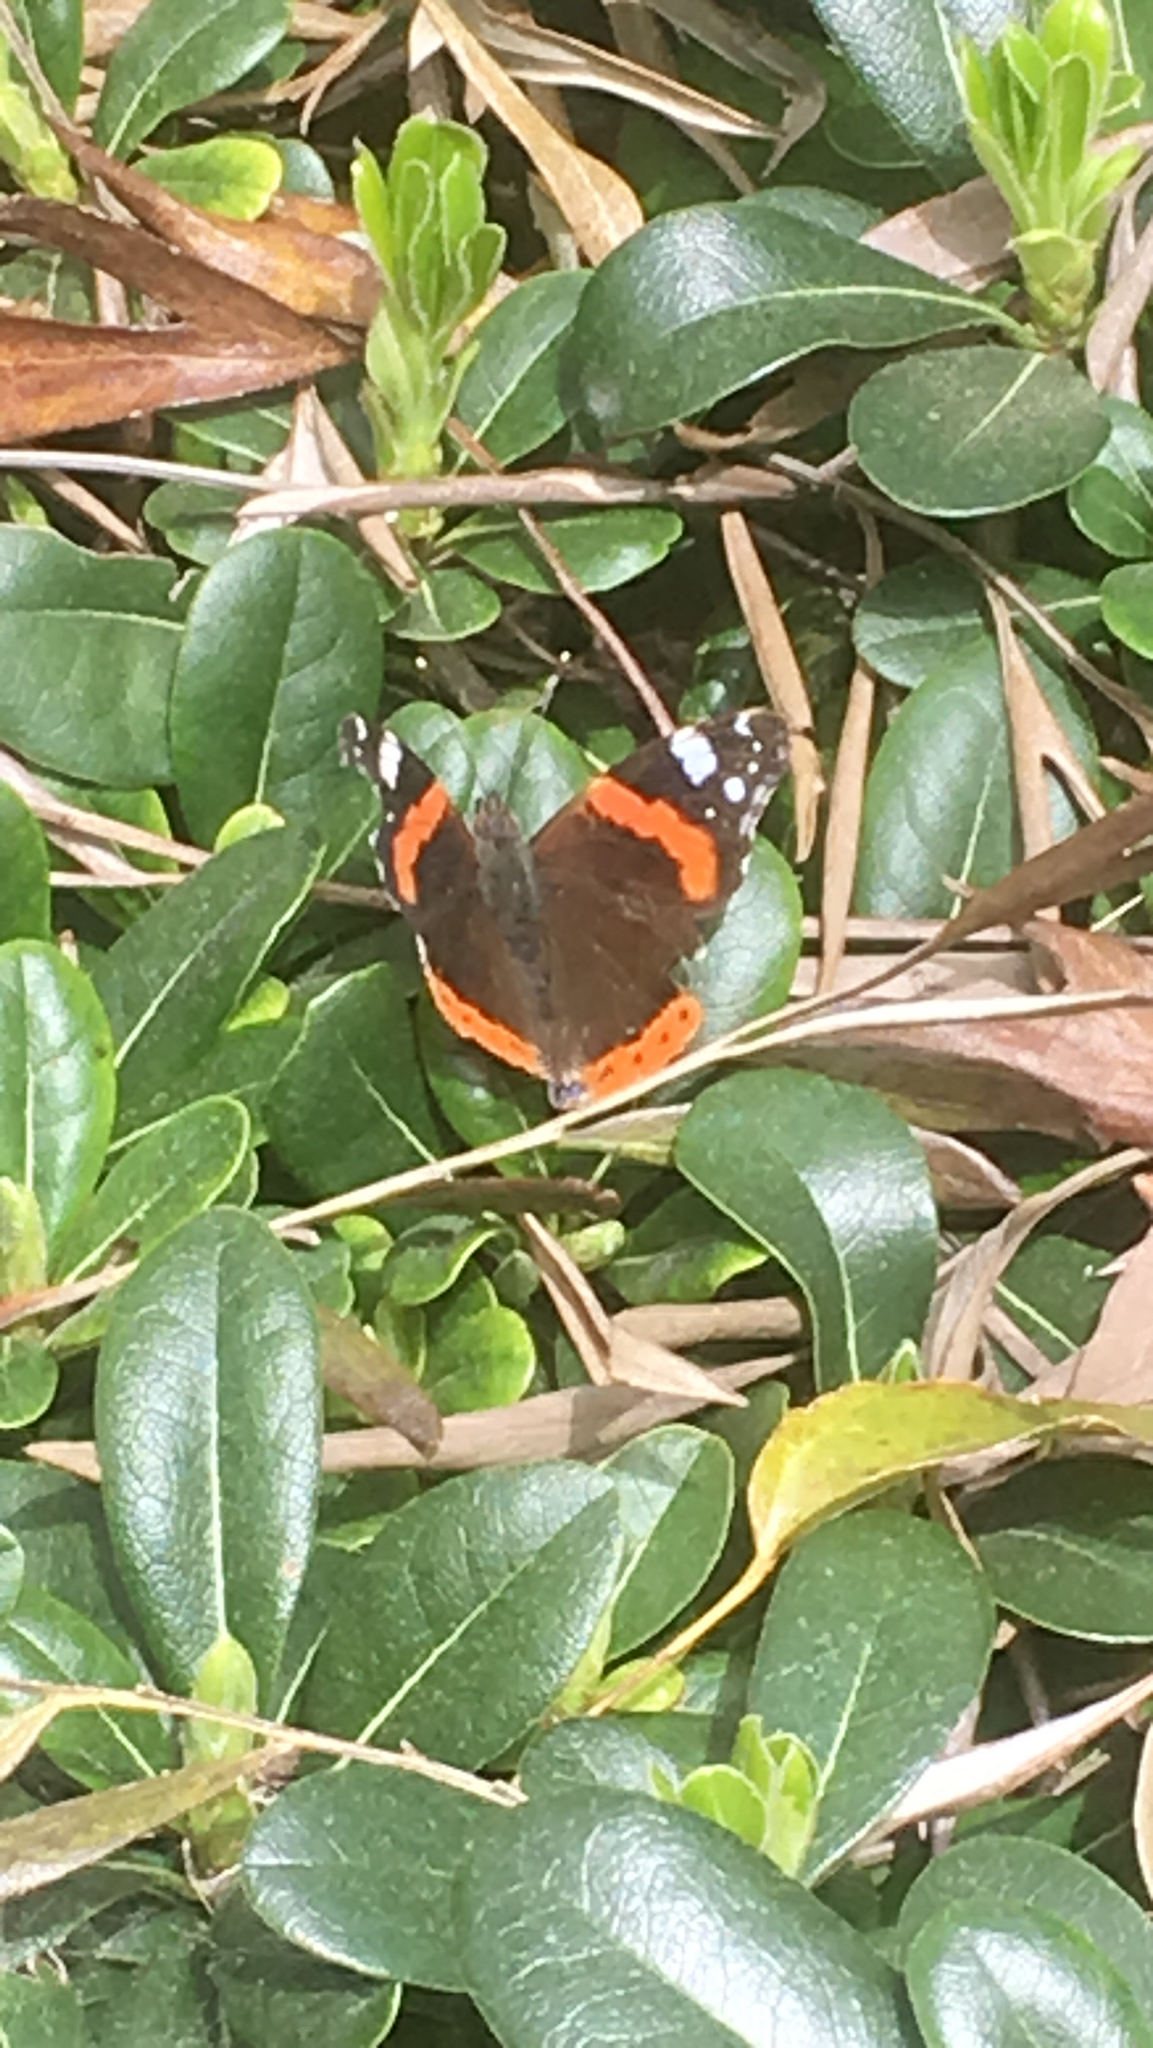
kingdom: Animalia
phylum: Arthropoda
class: Insecta
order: Lepidoptera
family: Nymphalidae
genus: Vanessa
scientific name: Vanessa atalanta
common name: Red admiral
